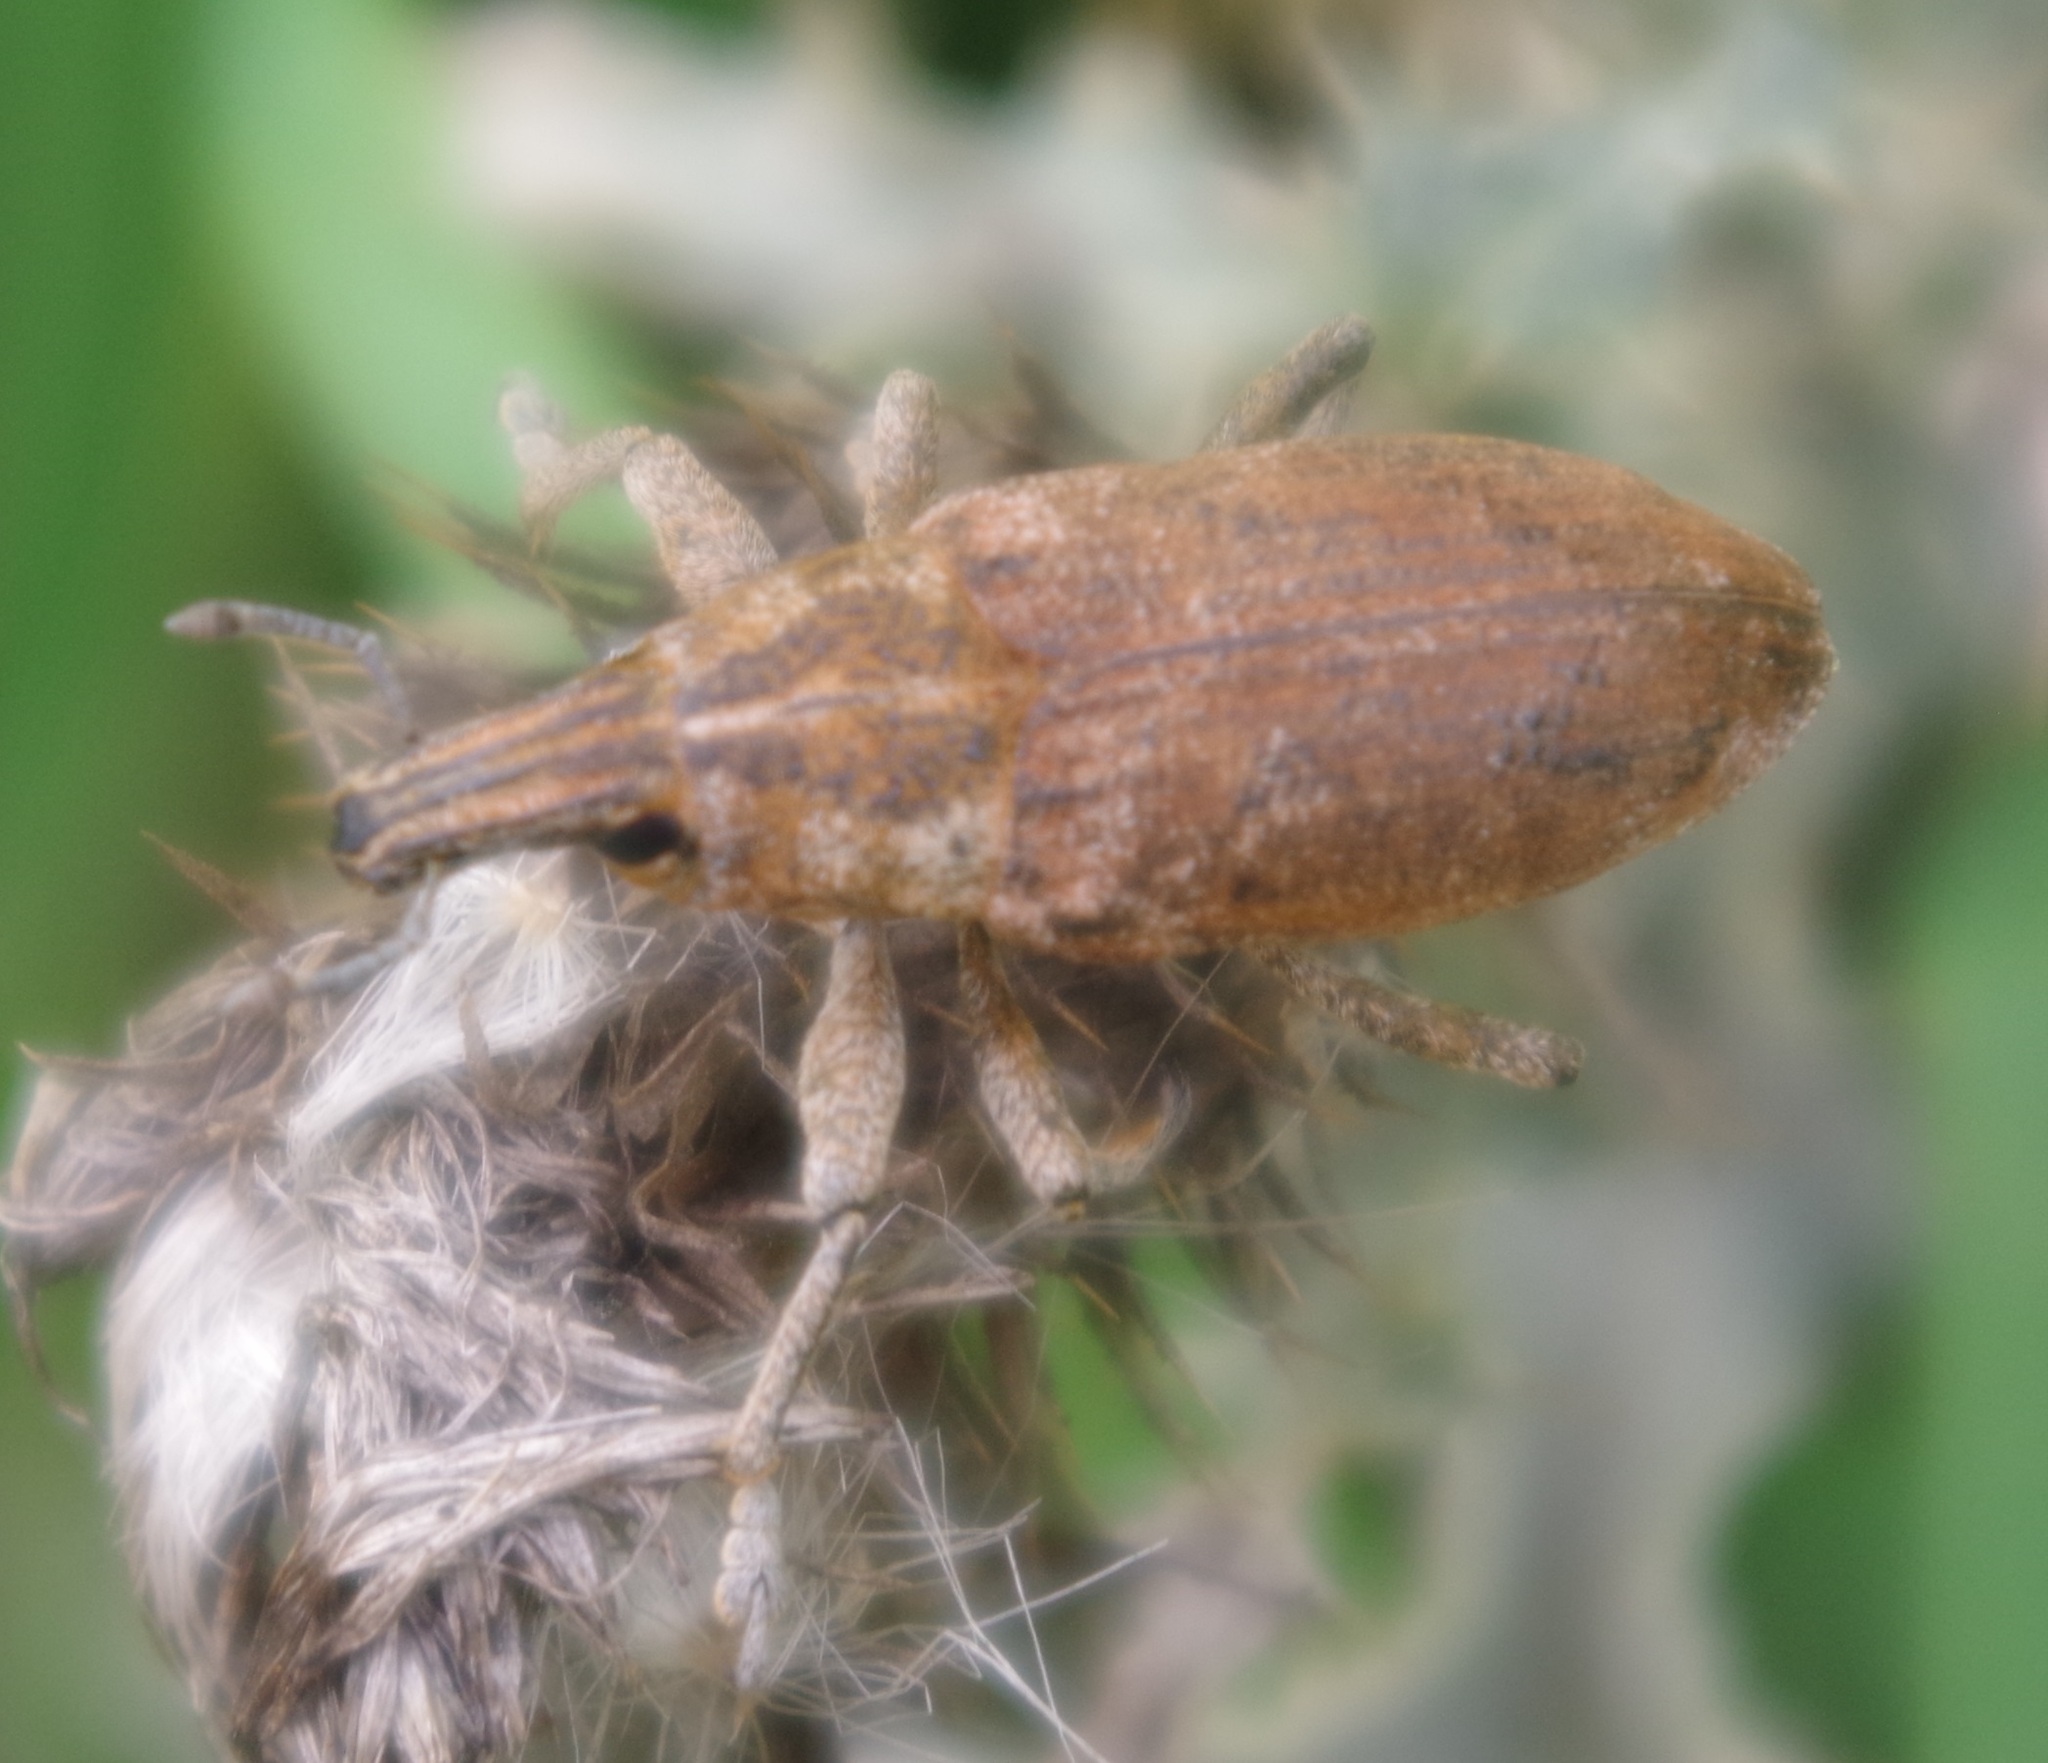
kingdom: Animalia
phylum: Arthropoda
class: Insecta
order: Coleoptera
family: Curculionidae
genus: Cleonis
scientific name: Cleonis pigra
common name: Large thistle weevil
